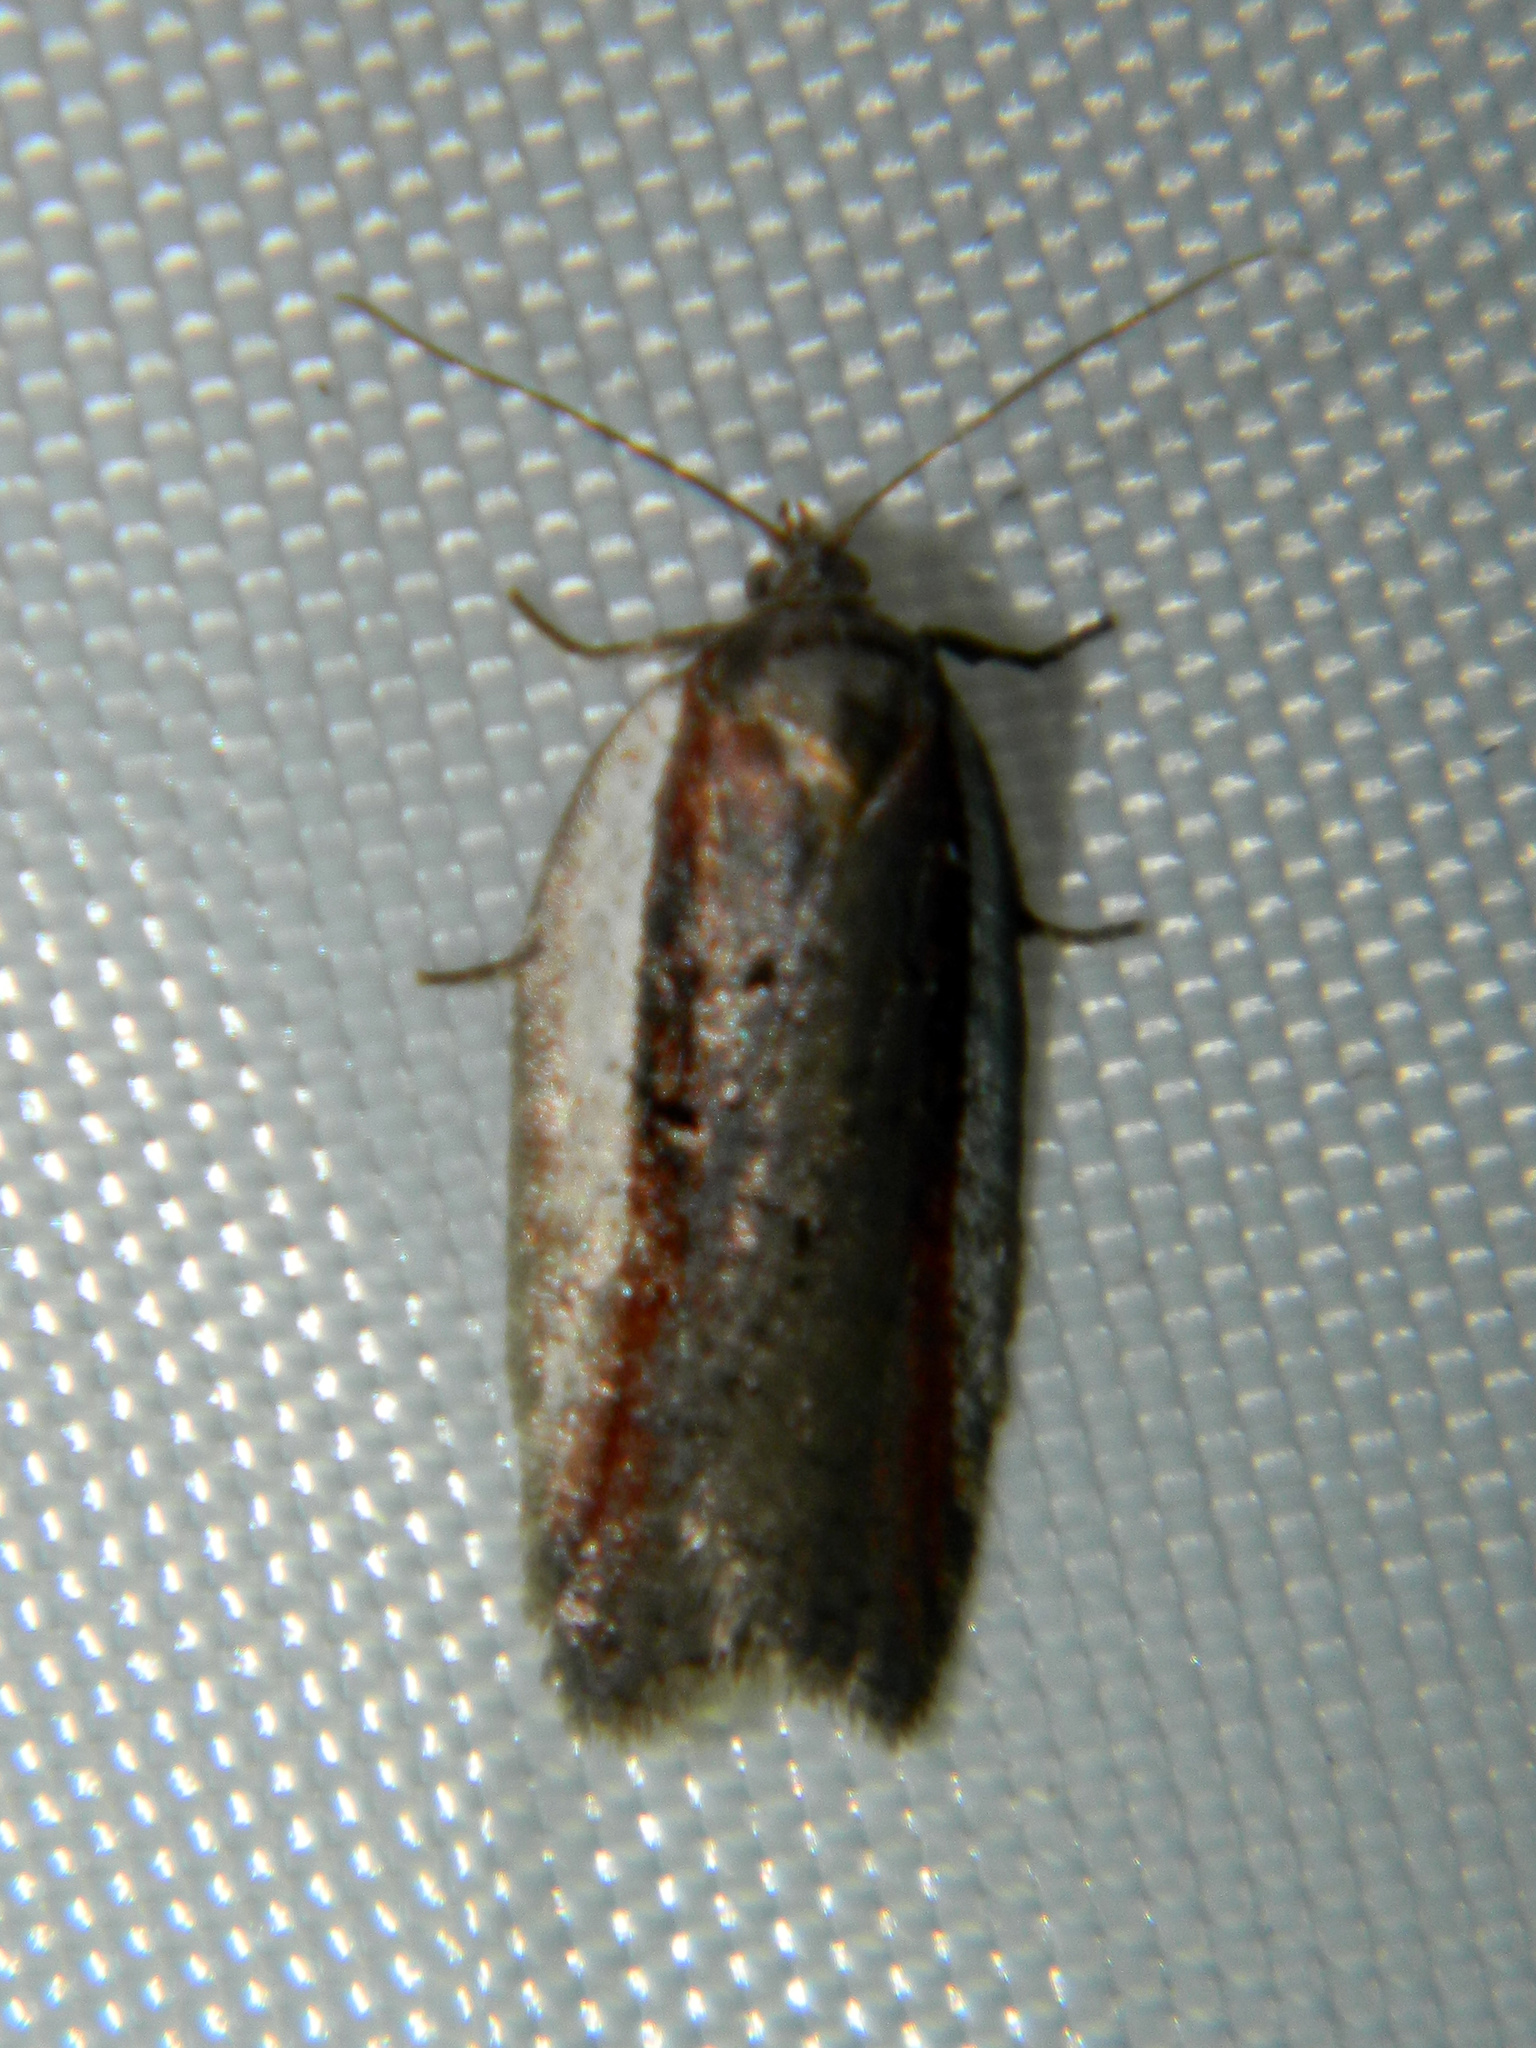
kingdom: Animalia
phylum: Arthropoda
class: Insecta
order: Lepidoptera
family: Tortricidae
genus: Acleris
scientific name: Acleris celiana
